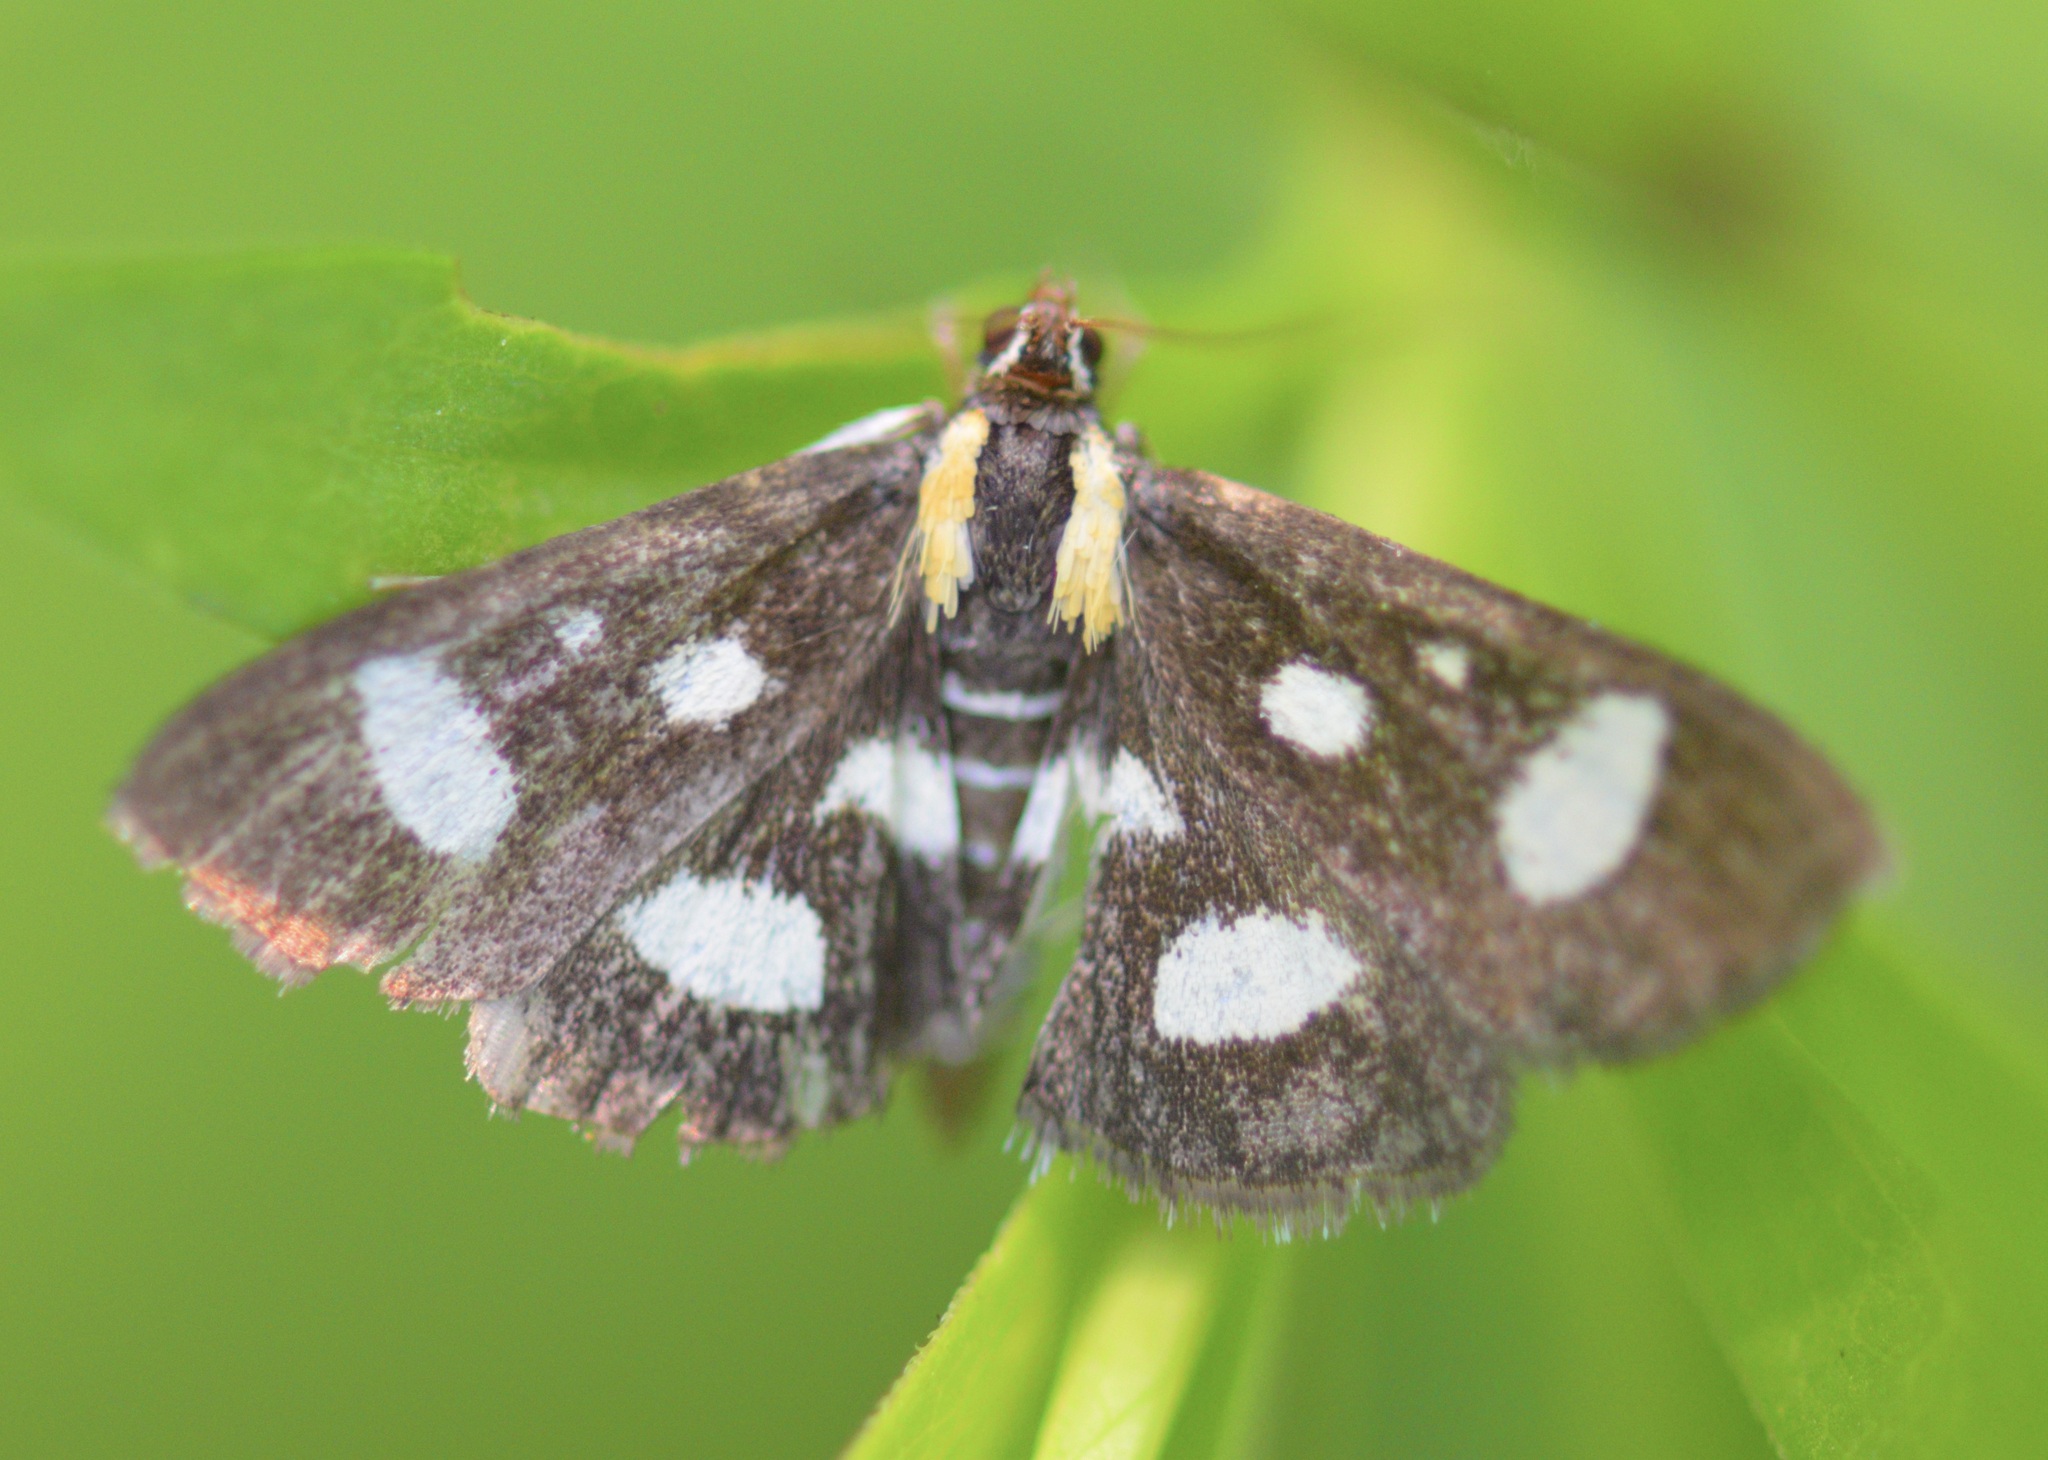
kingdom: Animalia
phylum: Arthropoda
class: Insecta
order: Lepidoptera
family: Crambidae
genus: Anania
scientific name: Anania funebris
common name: White-spotted sable moth
